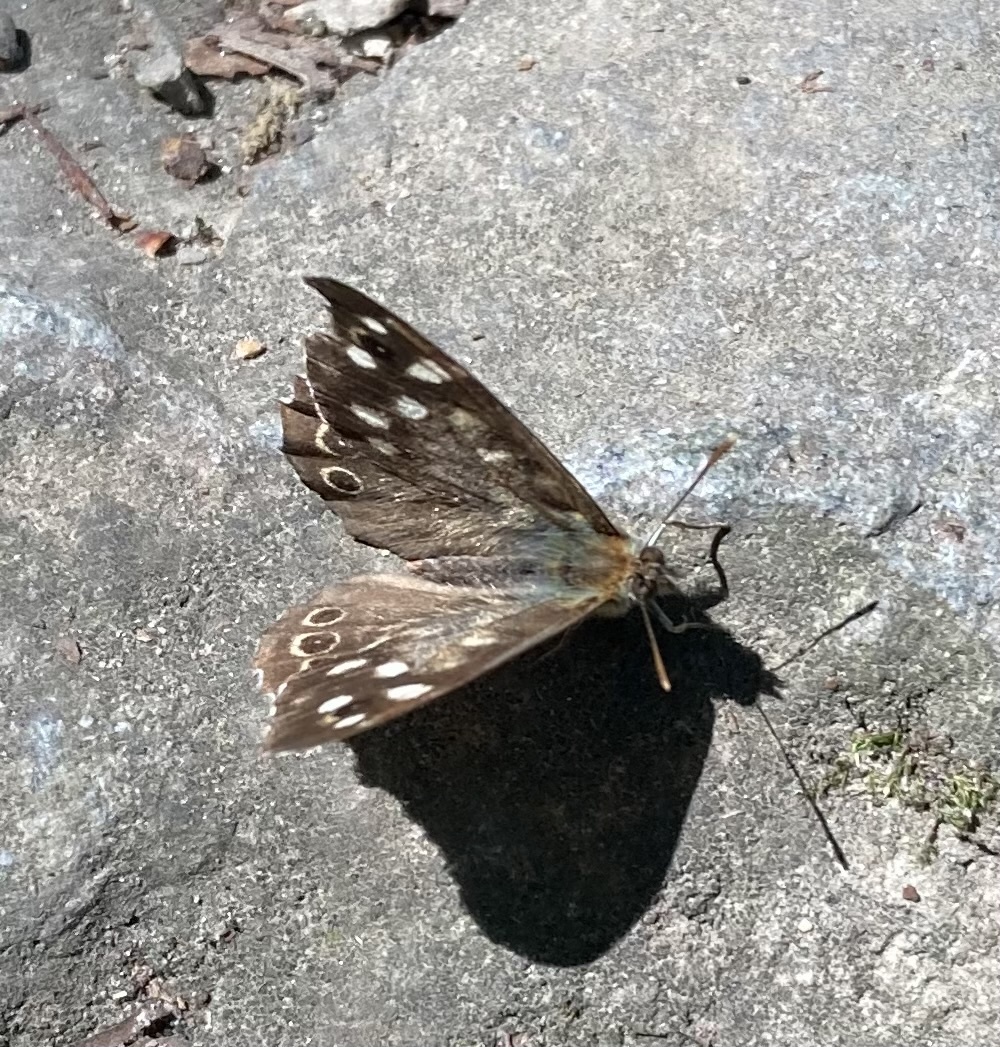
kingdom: Animalia
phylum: Arthropoda
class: Insecta
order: Lepidoptera
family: Nymphalidae
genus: Pararge
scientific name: Pararge aegeria
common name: Speckled wood
